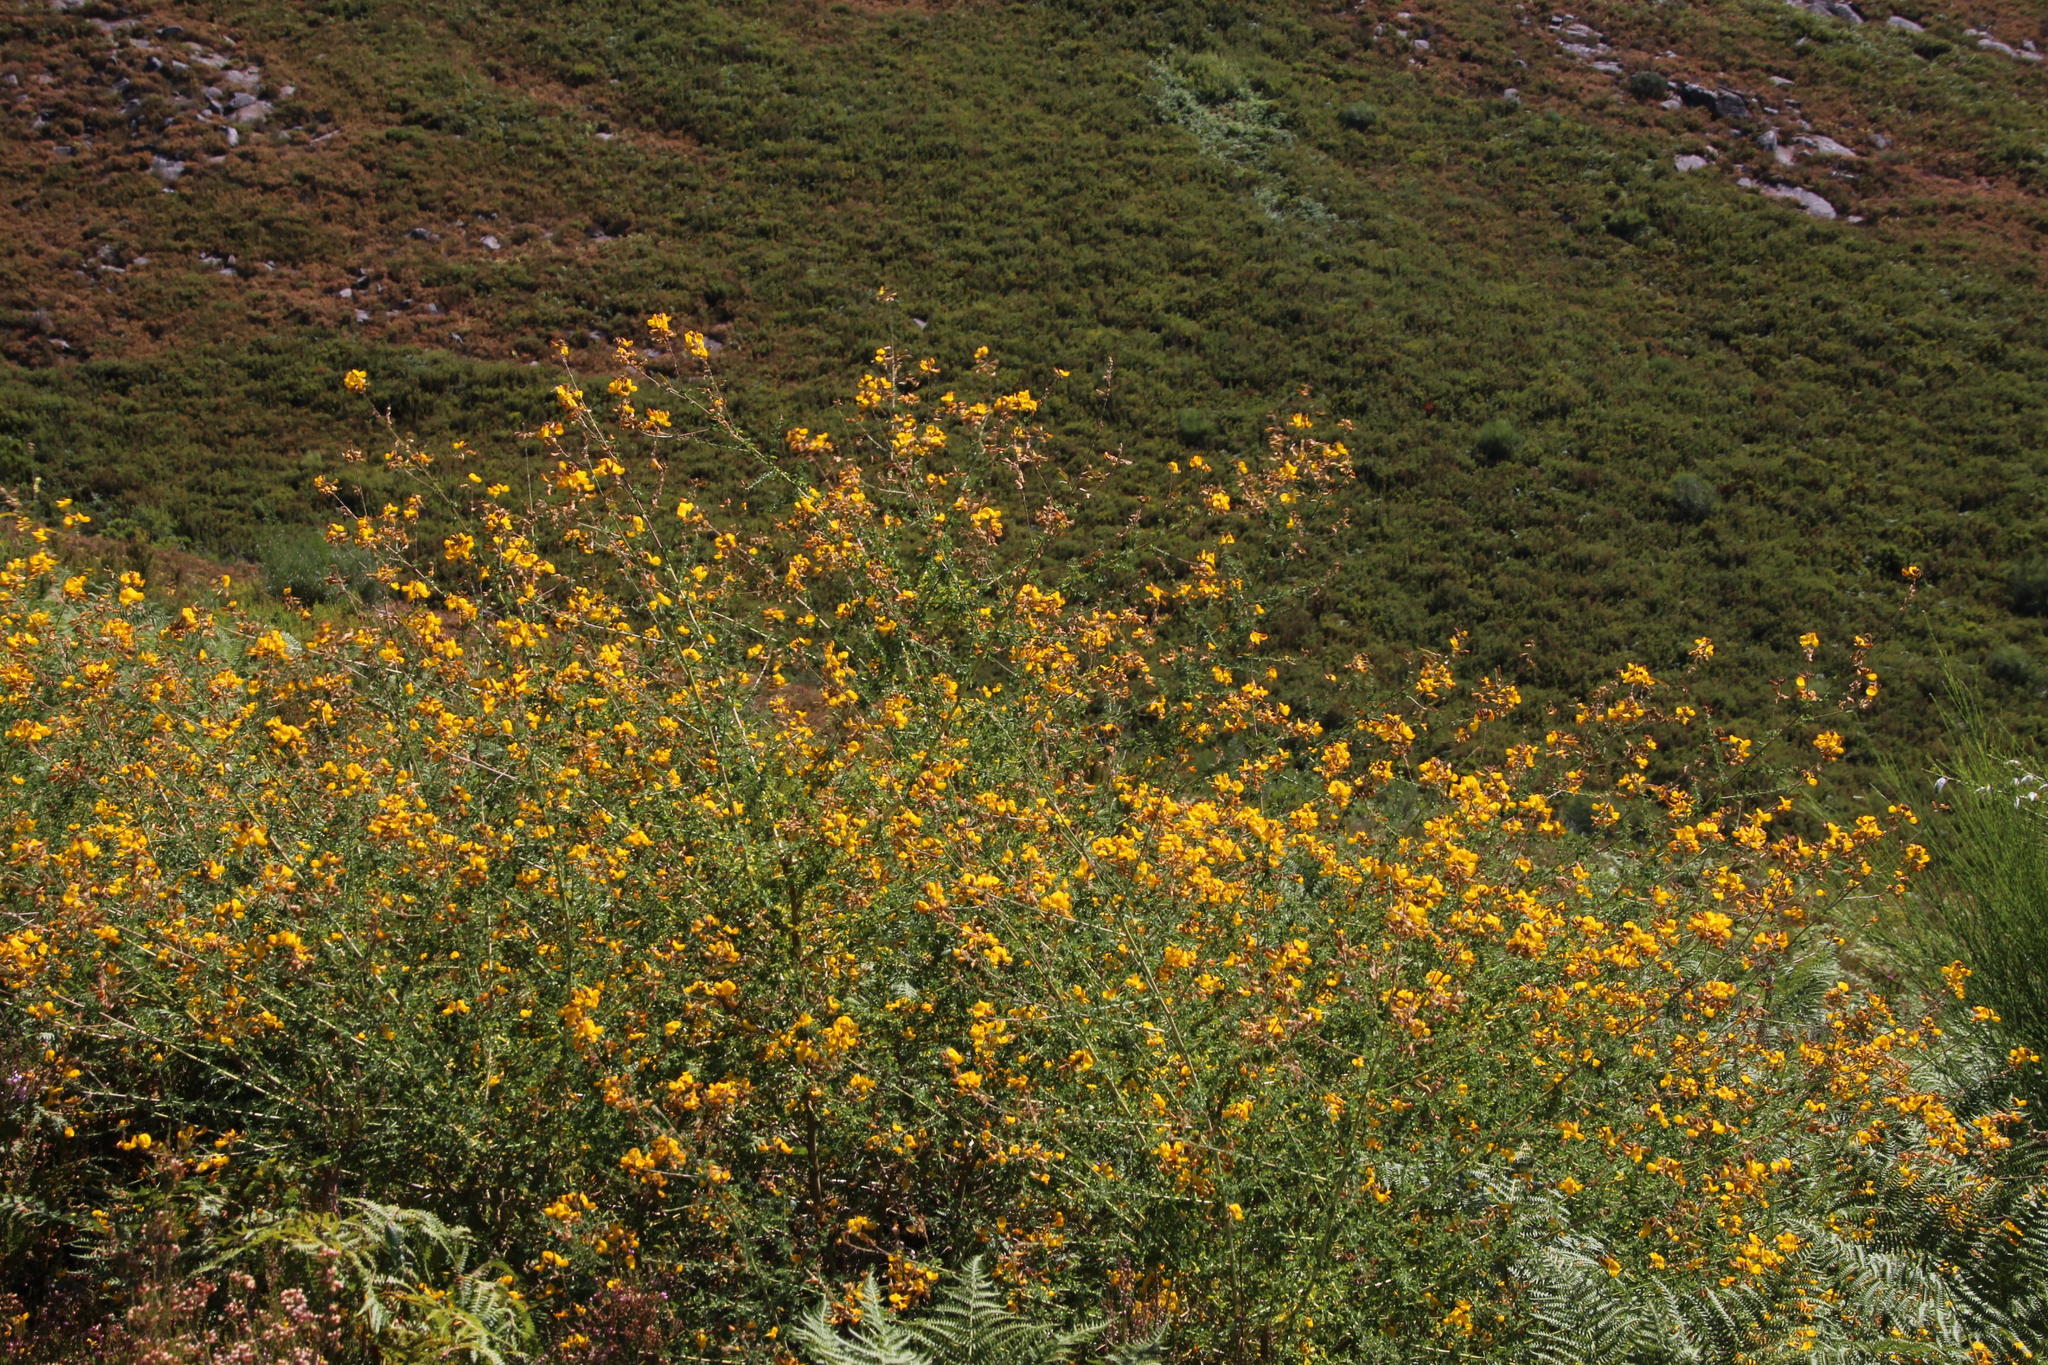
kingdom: Plantae
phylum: Tracheophyta
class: Magnoliopsida
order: Fabales
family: Fabaceae
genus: Adenocarpus
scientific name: Adenocarpus complicatus
